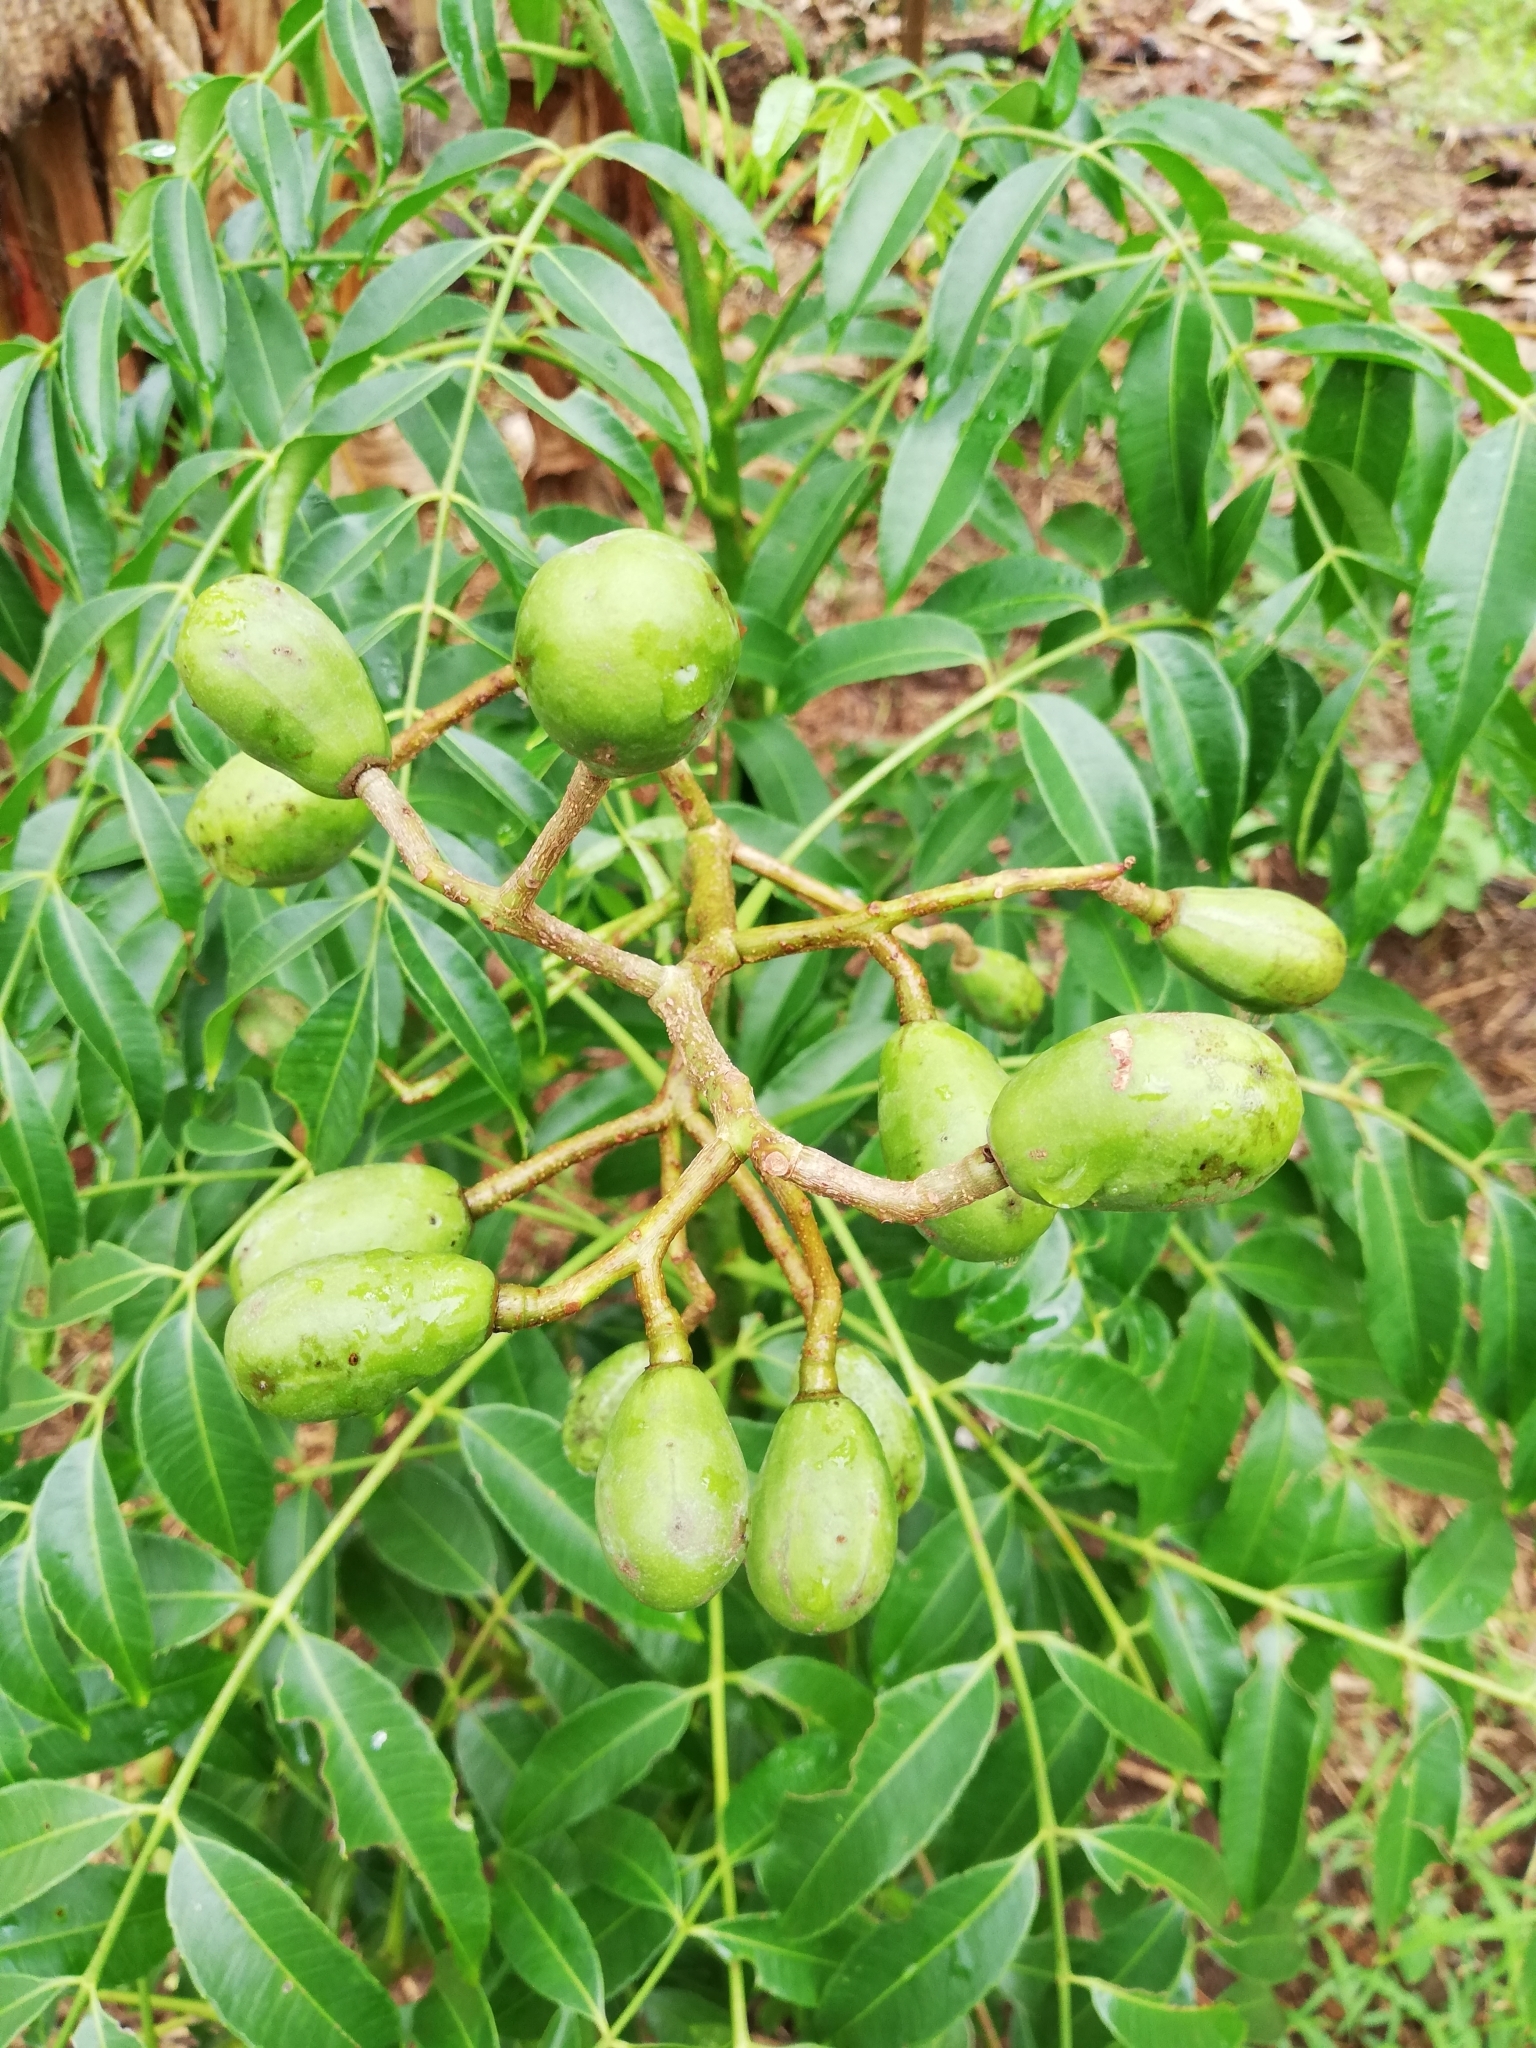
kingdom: Plantae
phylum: Tracheophyta
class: Magnoliopsida
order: Sapindales
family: Meliaceae
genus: Azadirachta
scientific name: Azadirachta indica
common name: Neem
